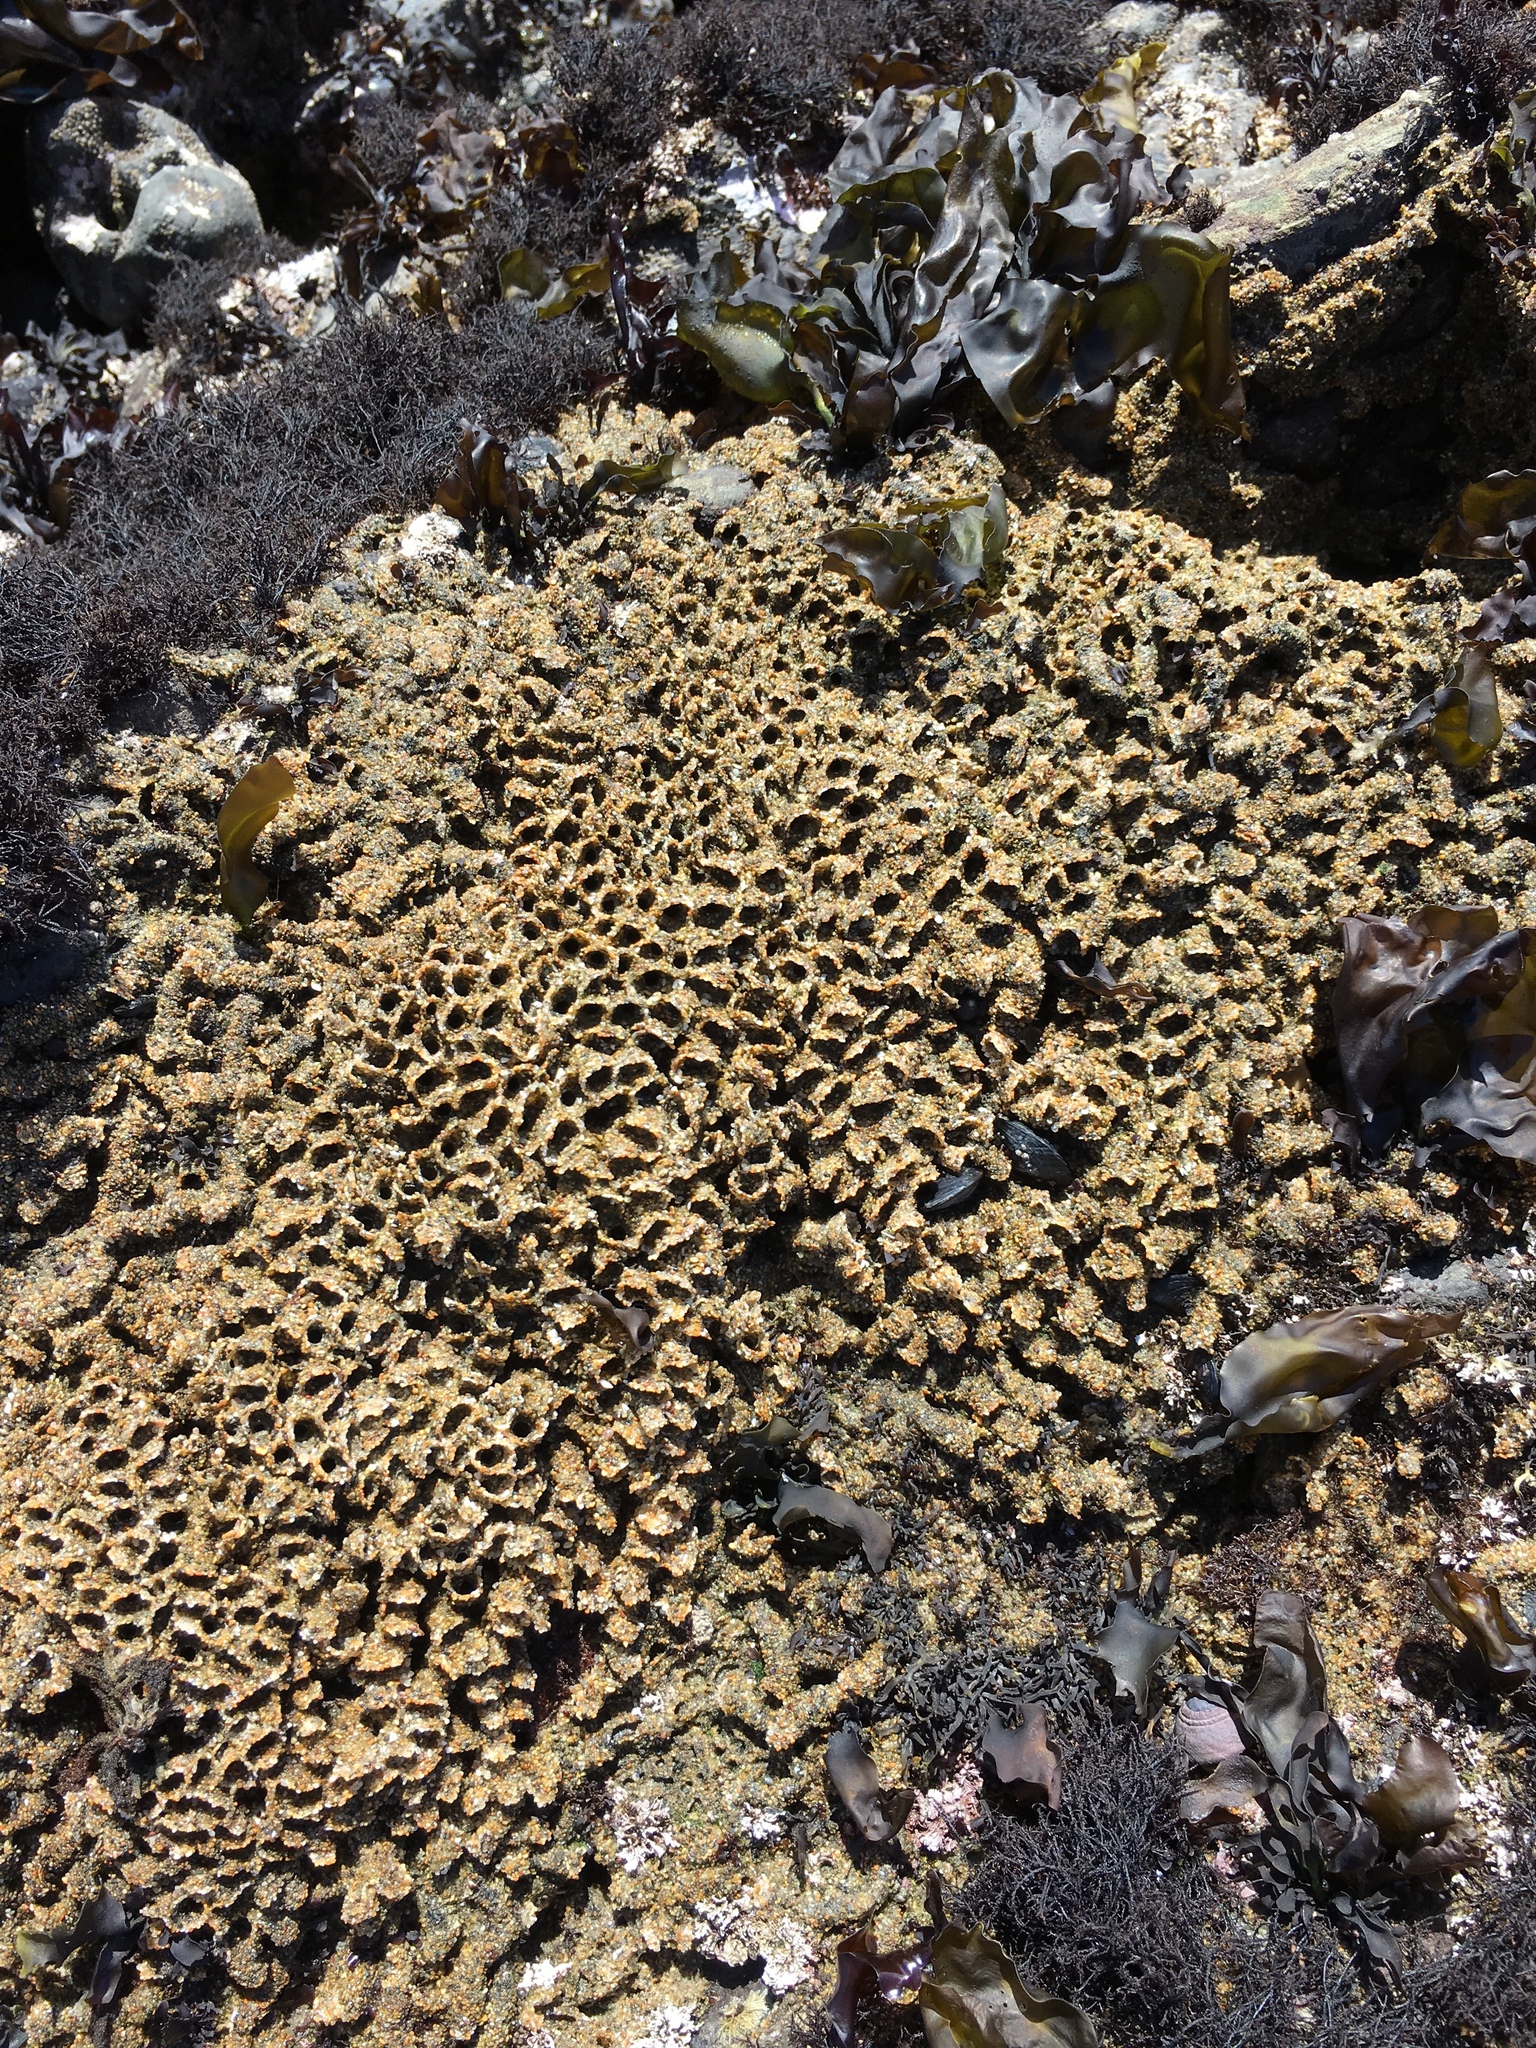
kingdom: Animalia
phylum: Annelida
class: Polychaeta
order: Sabellida
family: Sabellariidae
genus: Phragmatopoma
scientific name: Phragmatopoma californica
